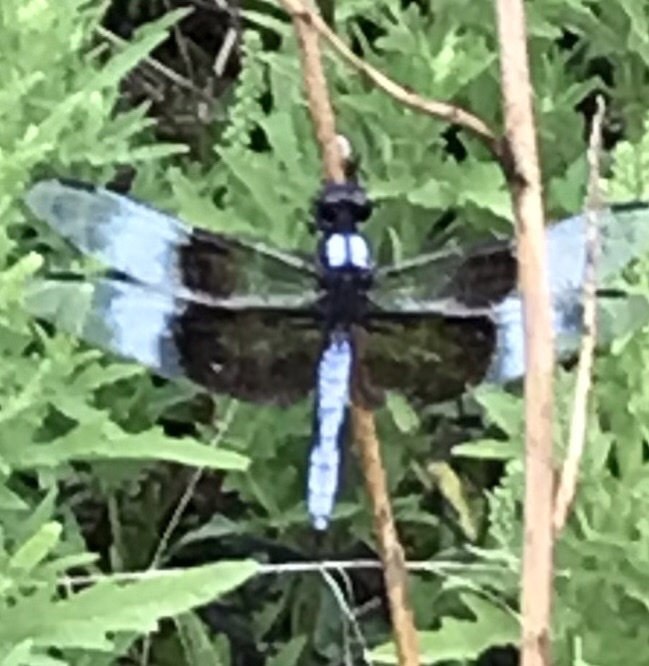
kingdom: Animalia
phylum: Arthropoda
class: Insecta
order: Odonata
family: Libellulidae
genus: Libellula
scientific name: Libellula luctuosa
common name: Widow skimmer
